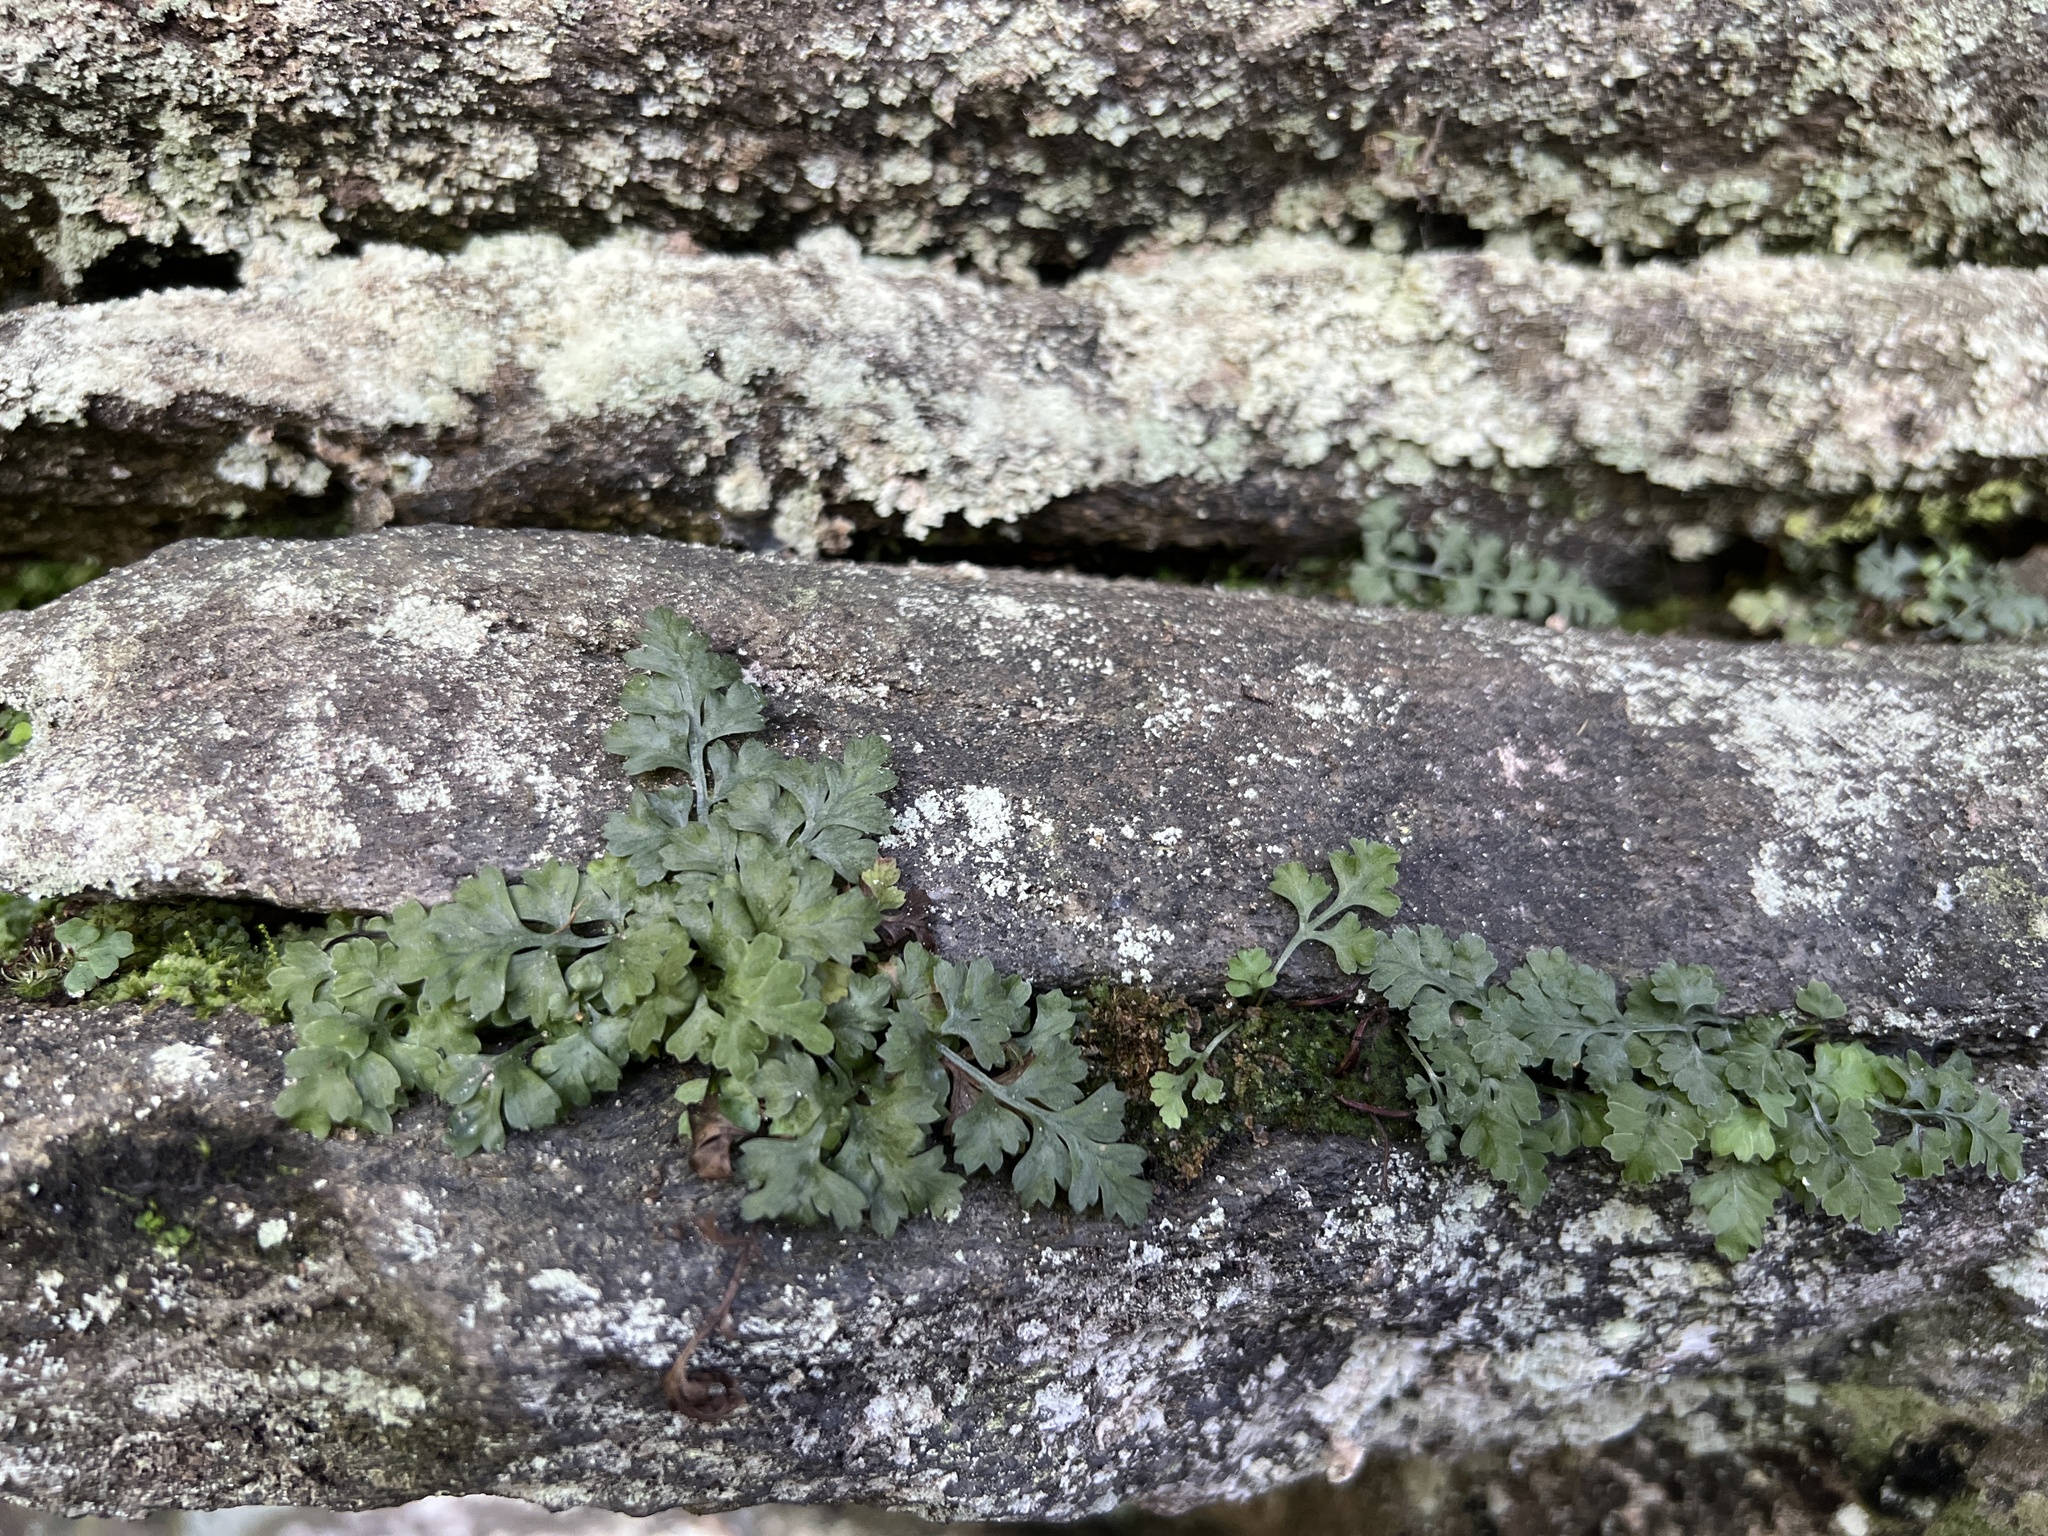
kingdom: Plantae
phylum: Tracheophyta
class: Polypodiopsida
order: Polypodiales
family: Aspleniaceae
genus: Asplenium
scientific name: Asplenium montanum
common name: Mountain spleenwort
